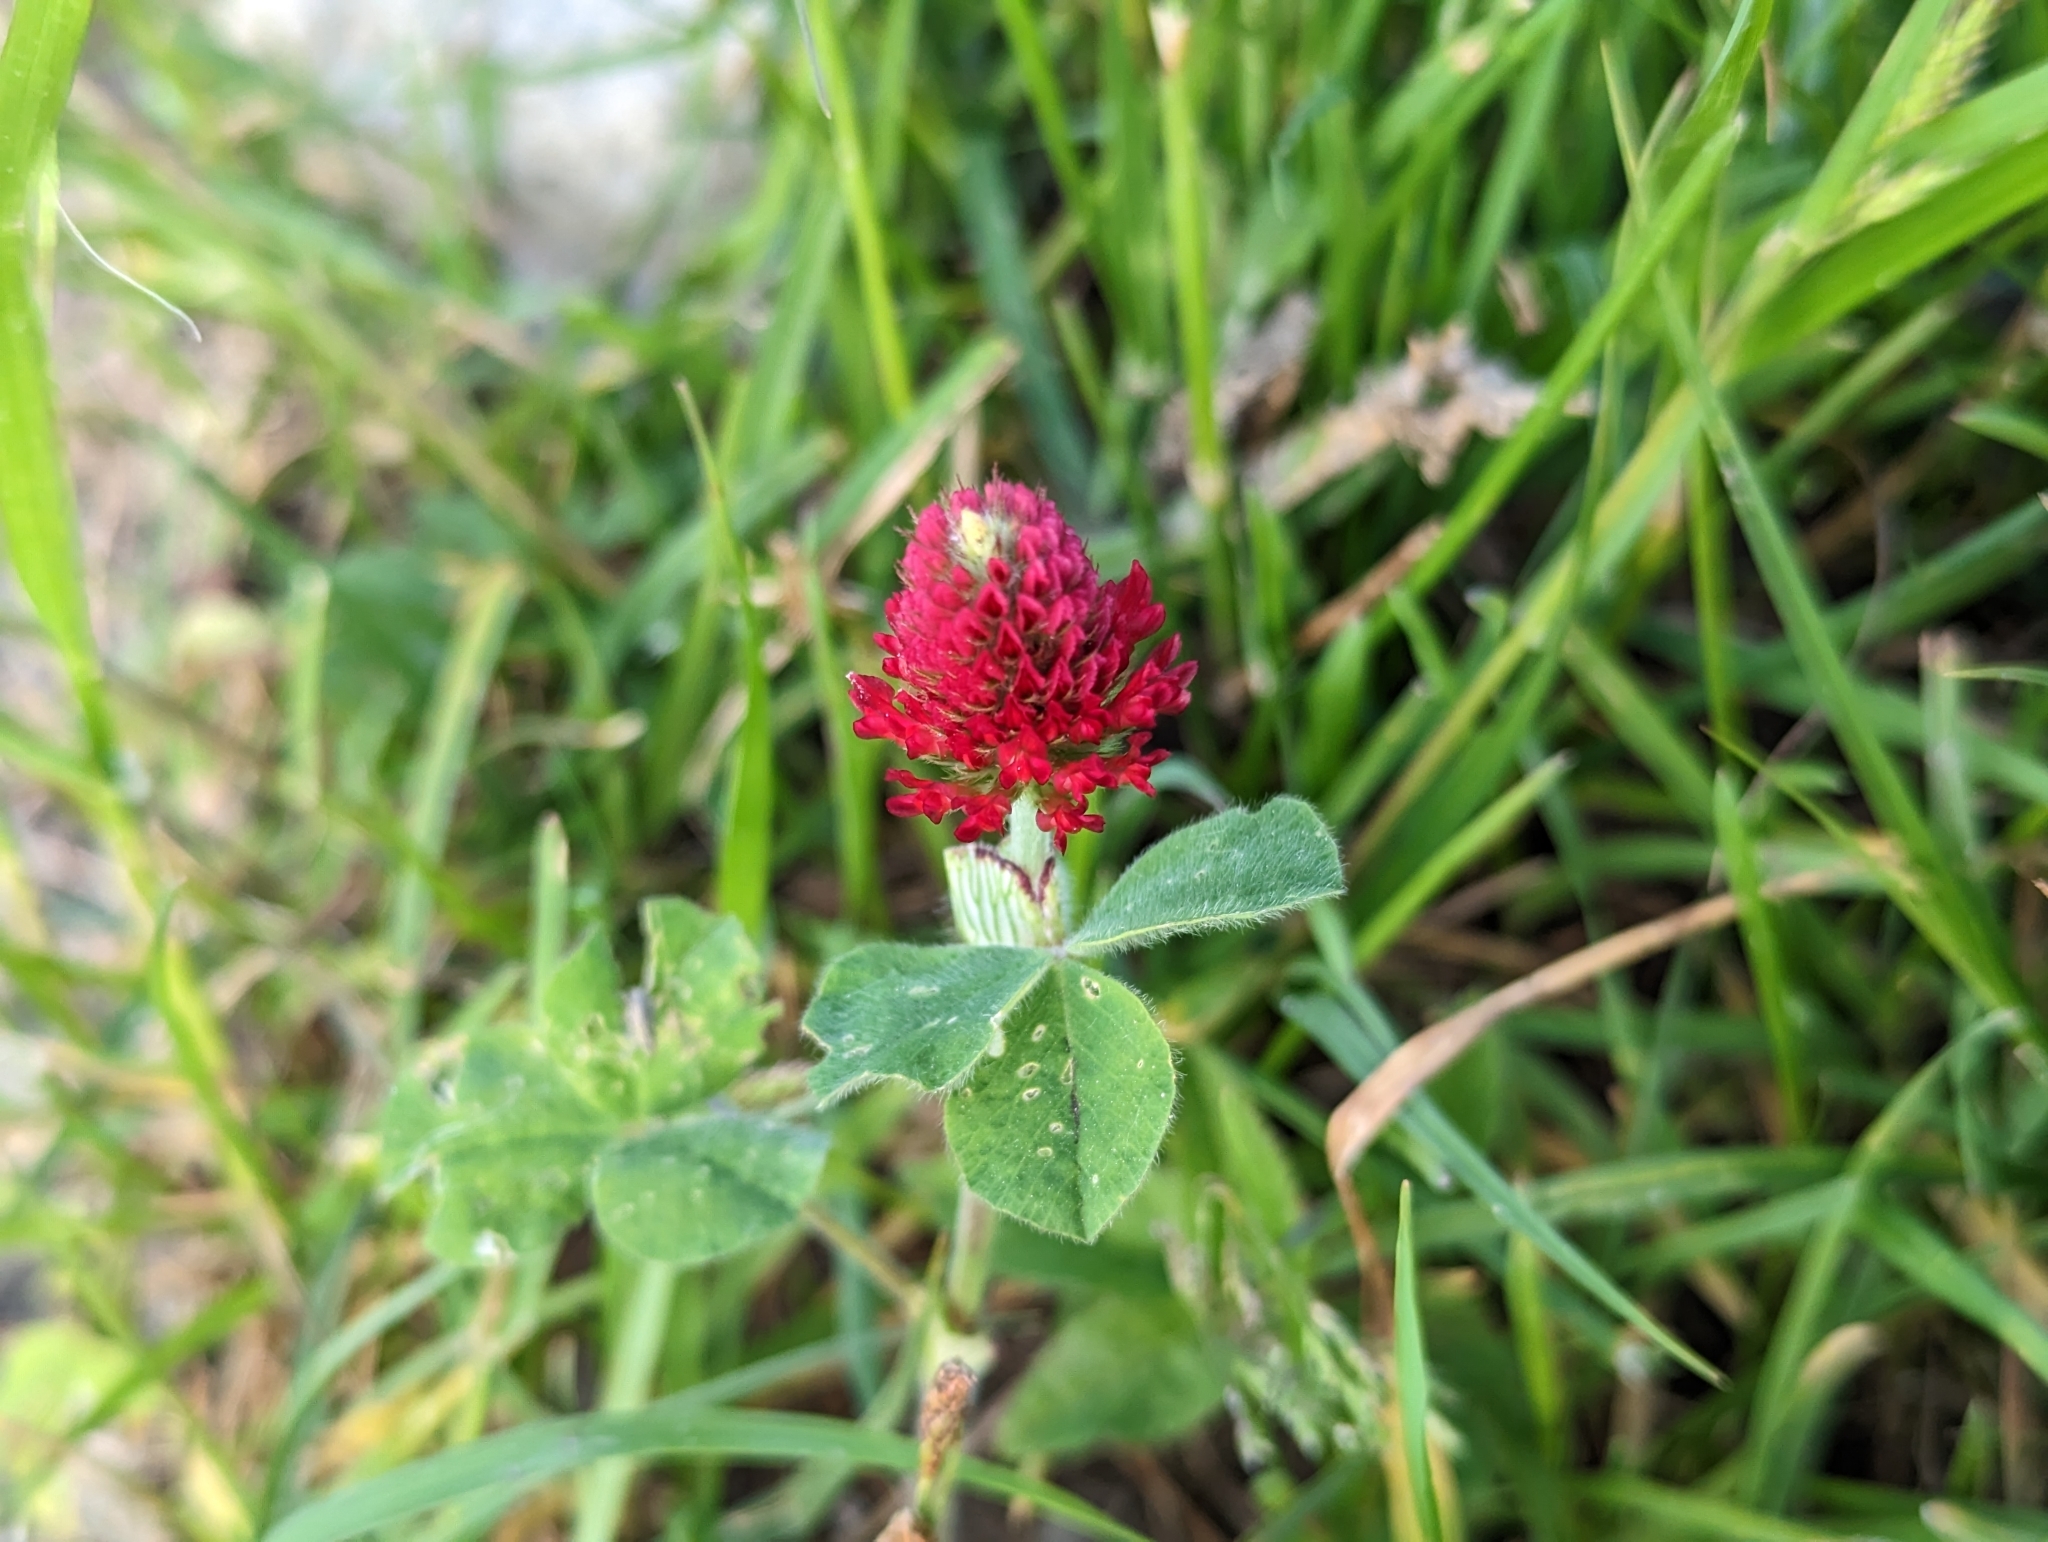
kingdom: Plantae
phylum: Tracheophyta
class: Magnoliopsida
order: Fabales
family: Fabaceae
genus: Trifolium
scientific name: Trifolium incarnatum
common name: Crimson clover
